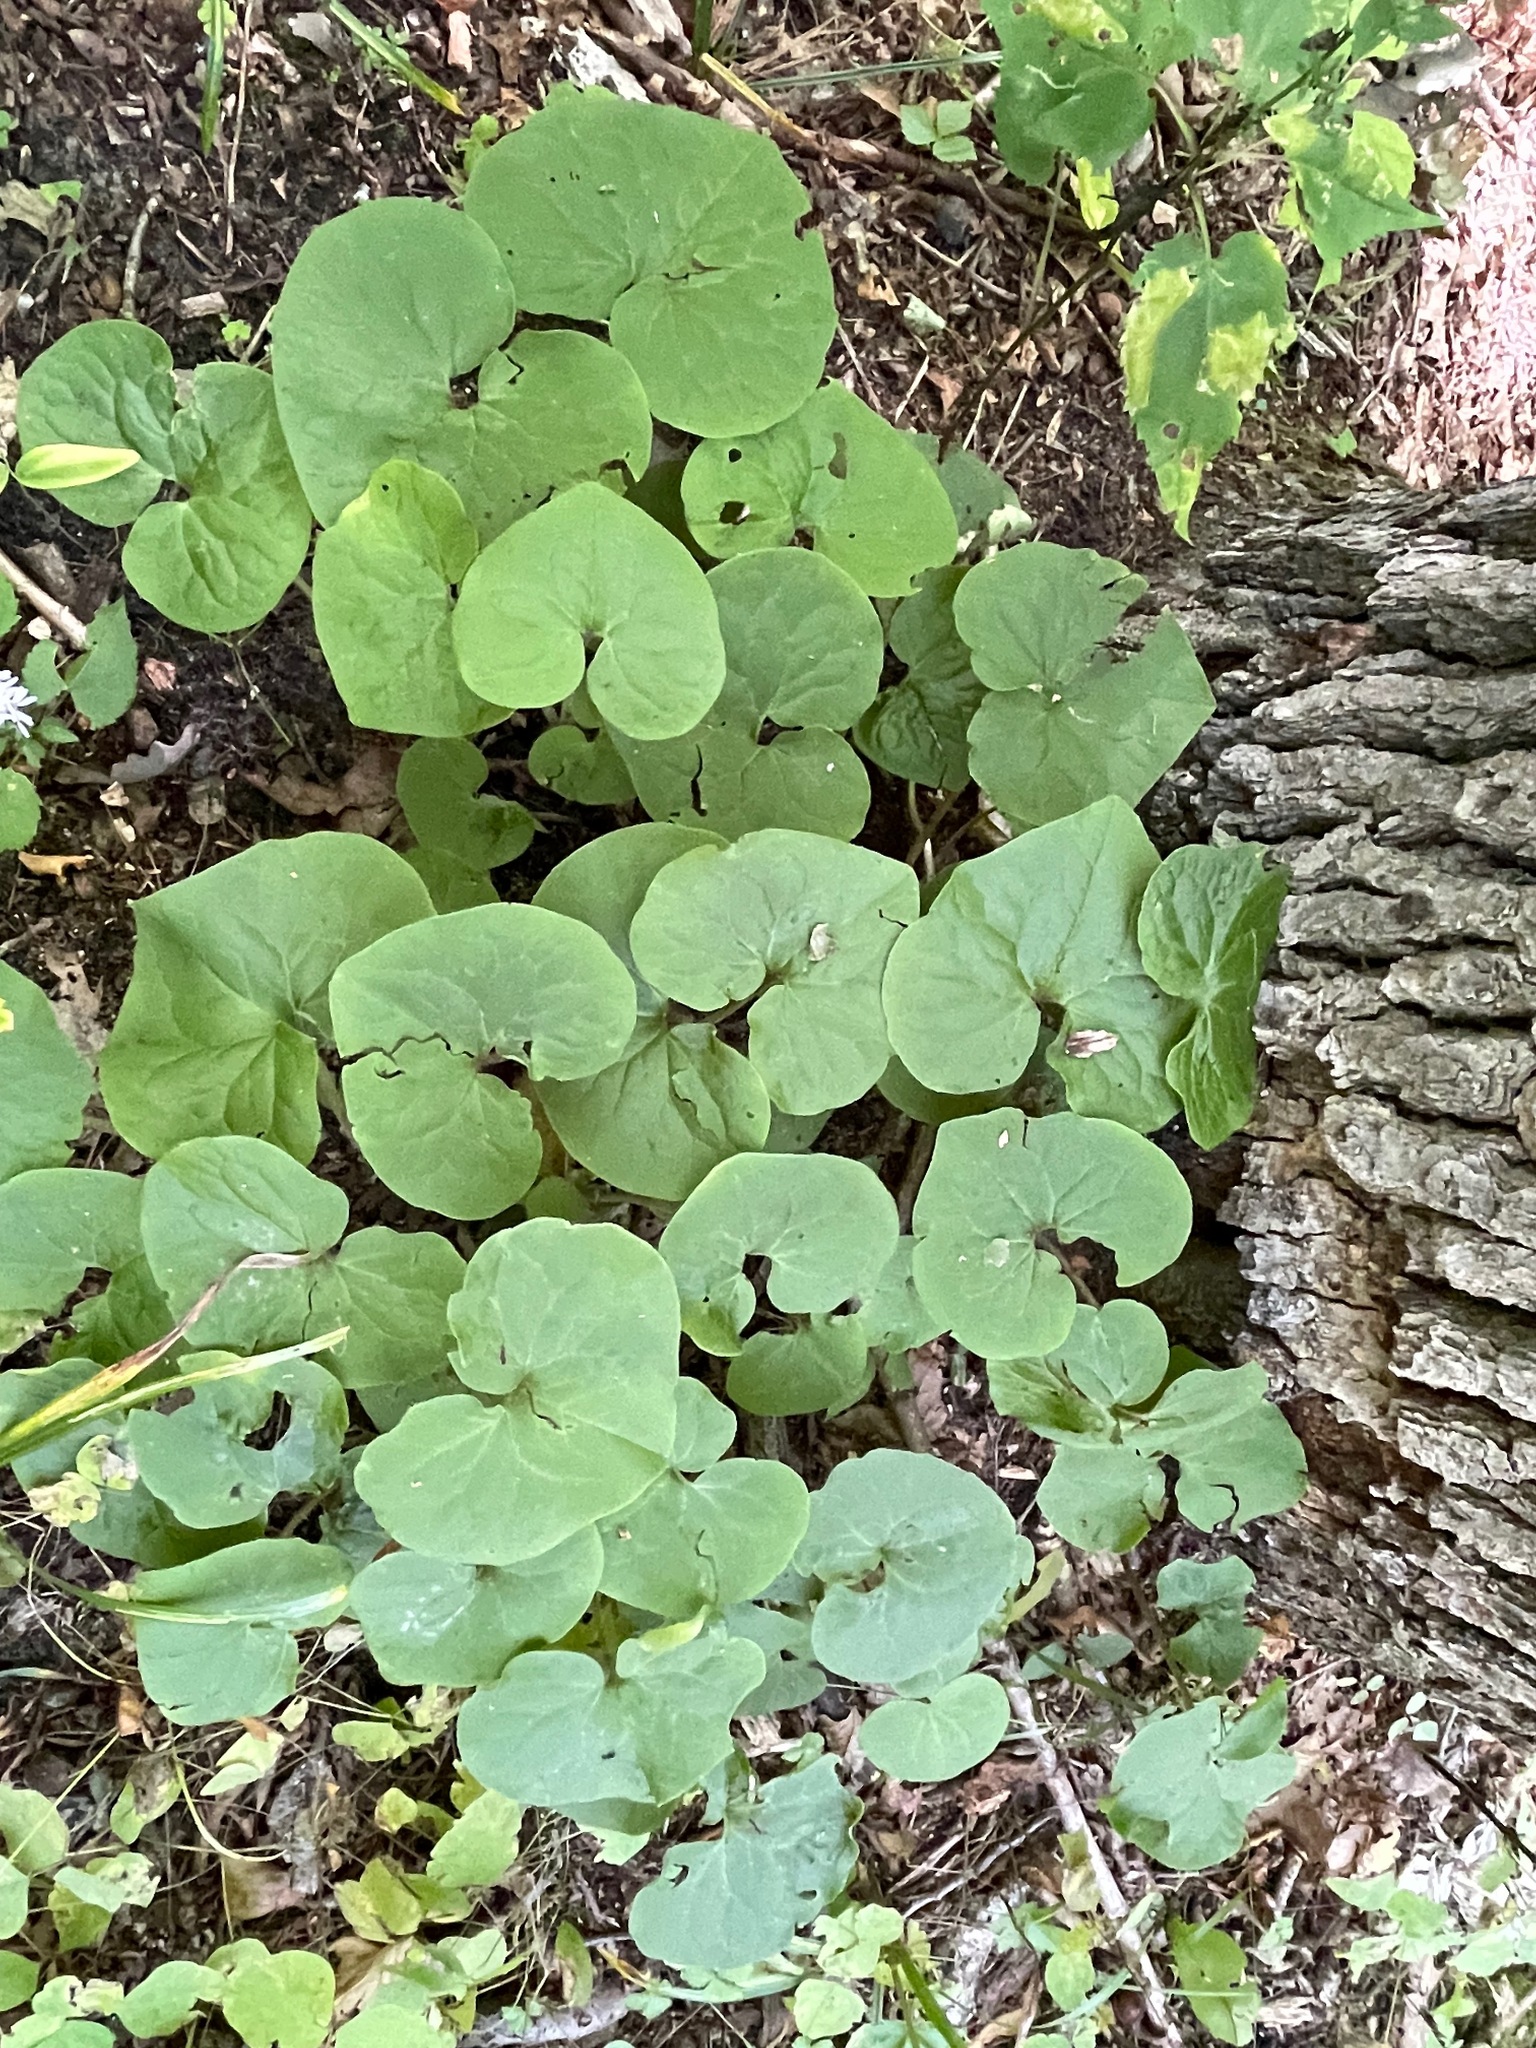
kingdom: Plantae
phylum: Tracheophyta
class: Magnoliopsida
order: Piperales
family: Aristolochiaceae
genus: Asarum
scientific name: Asarum canadense
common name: Wild ginger
